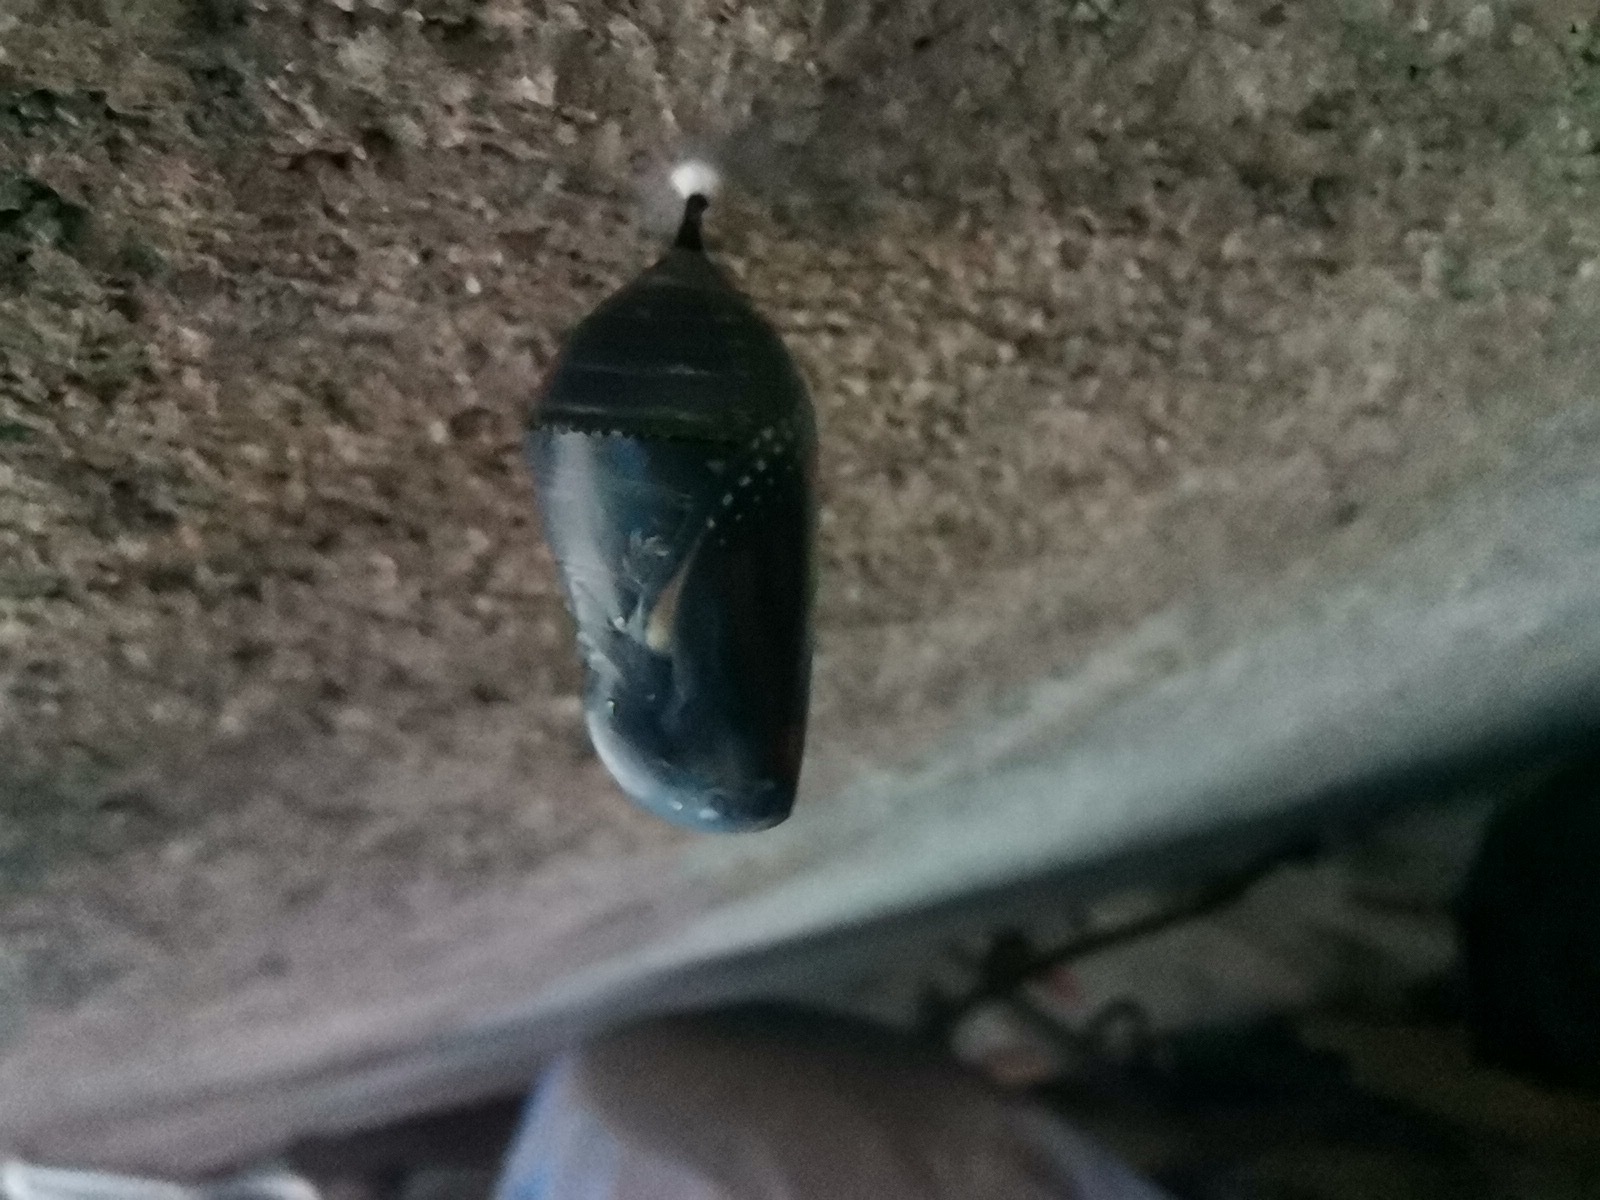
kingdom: Animalia
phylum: Arthropoda
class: Insecta
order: Lepidoptera
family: Nymphalidae
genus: Danaus
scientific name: Danaus plexippus
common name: Monarch
